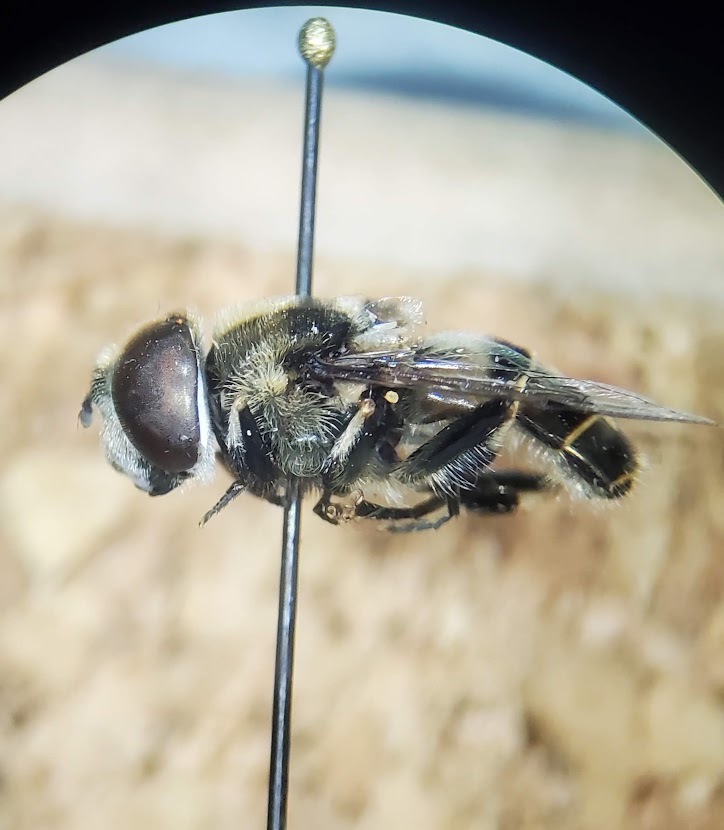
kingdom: Animalia
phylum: Arthropoda
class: Insecta
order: Diptera
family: Syrphidae
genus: Eristalis
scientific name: Eristalis dimidiata
